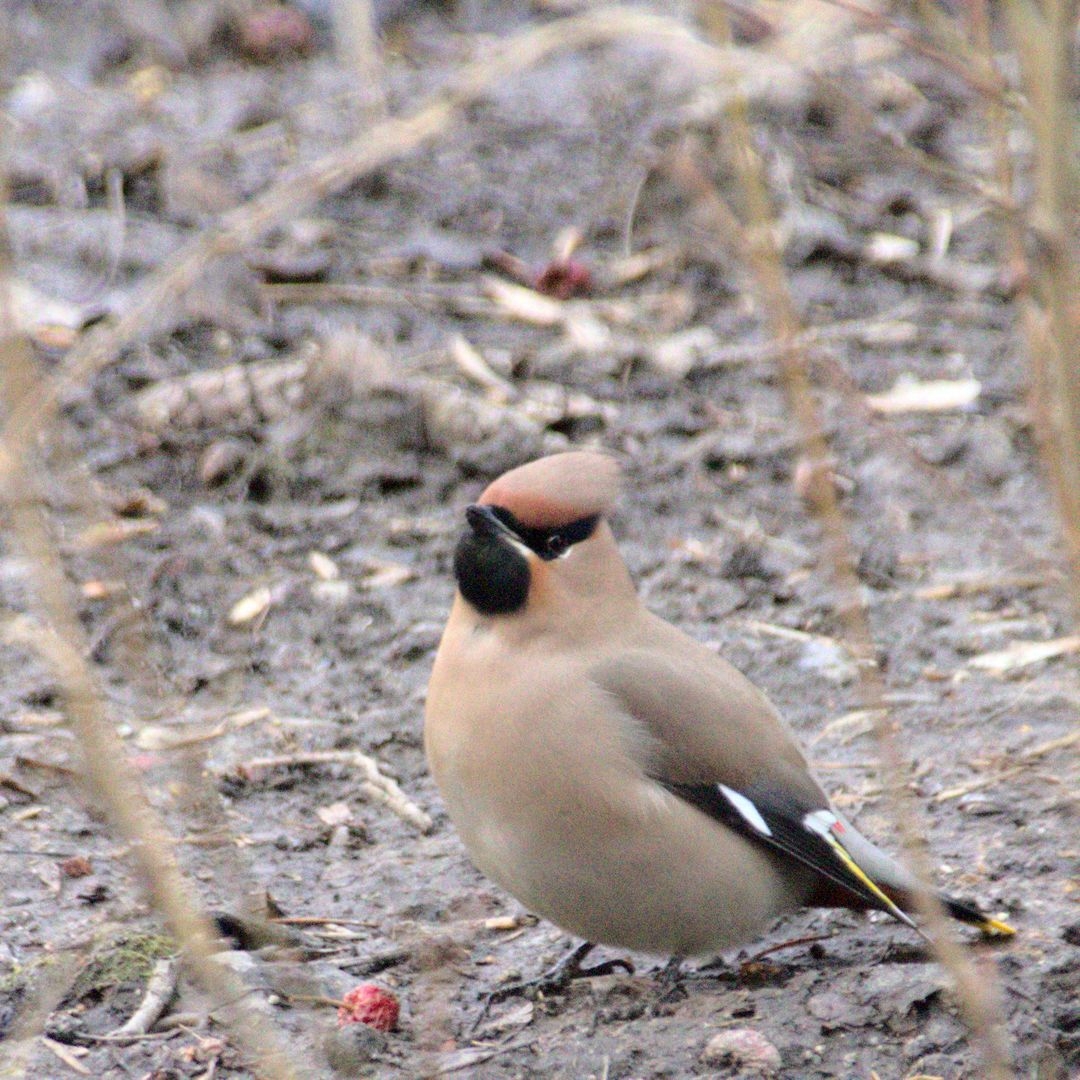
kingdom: Animalia
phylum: Chordata
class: Aves
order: Passeriformes
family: Bombycillidae
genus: Bombycilla
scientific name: Bombycilla garrulus
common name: Bohemian waxwing
